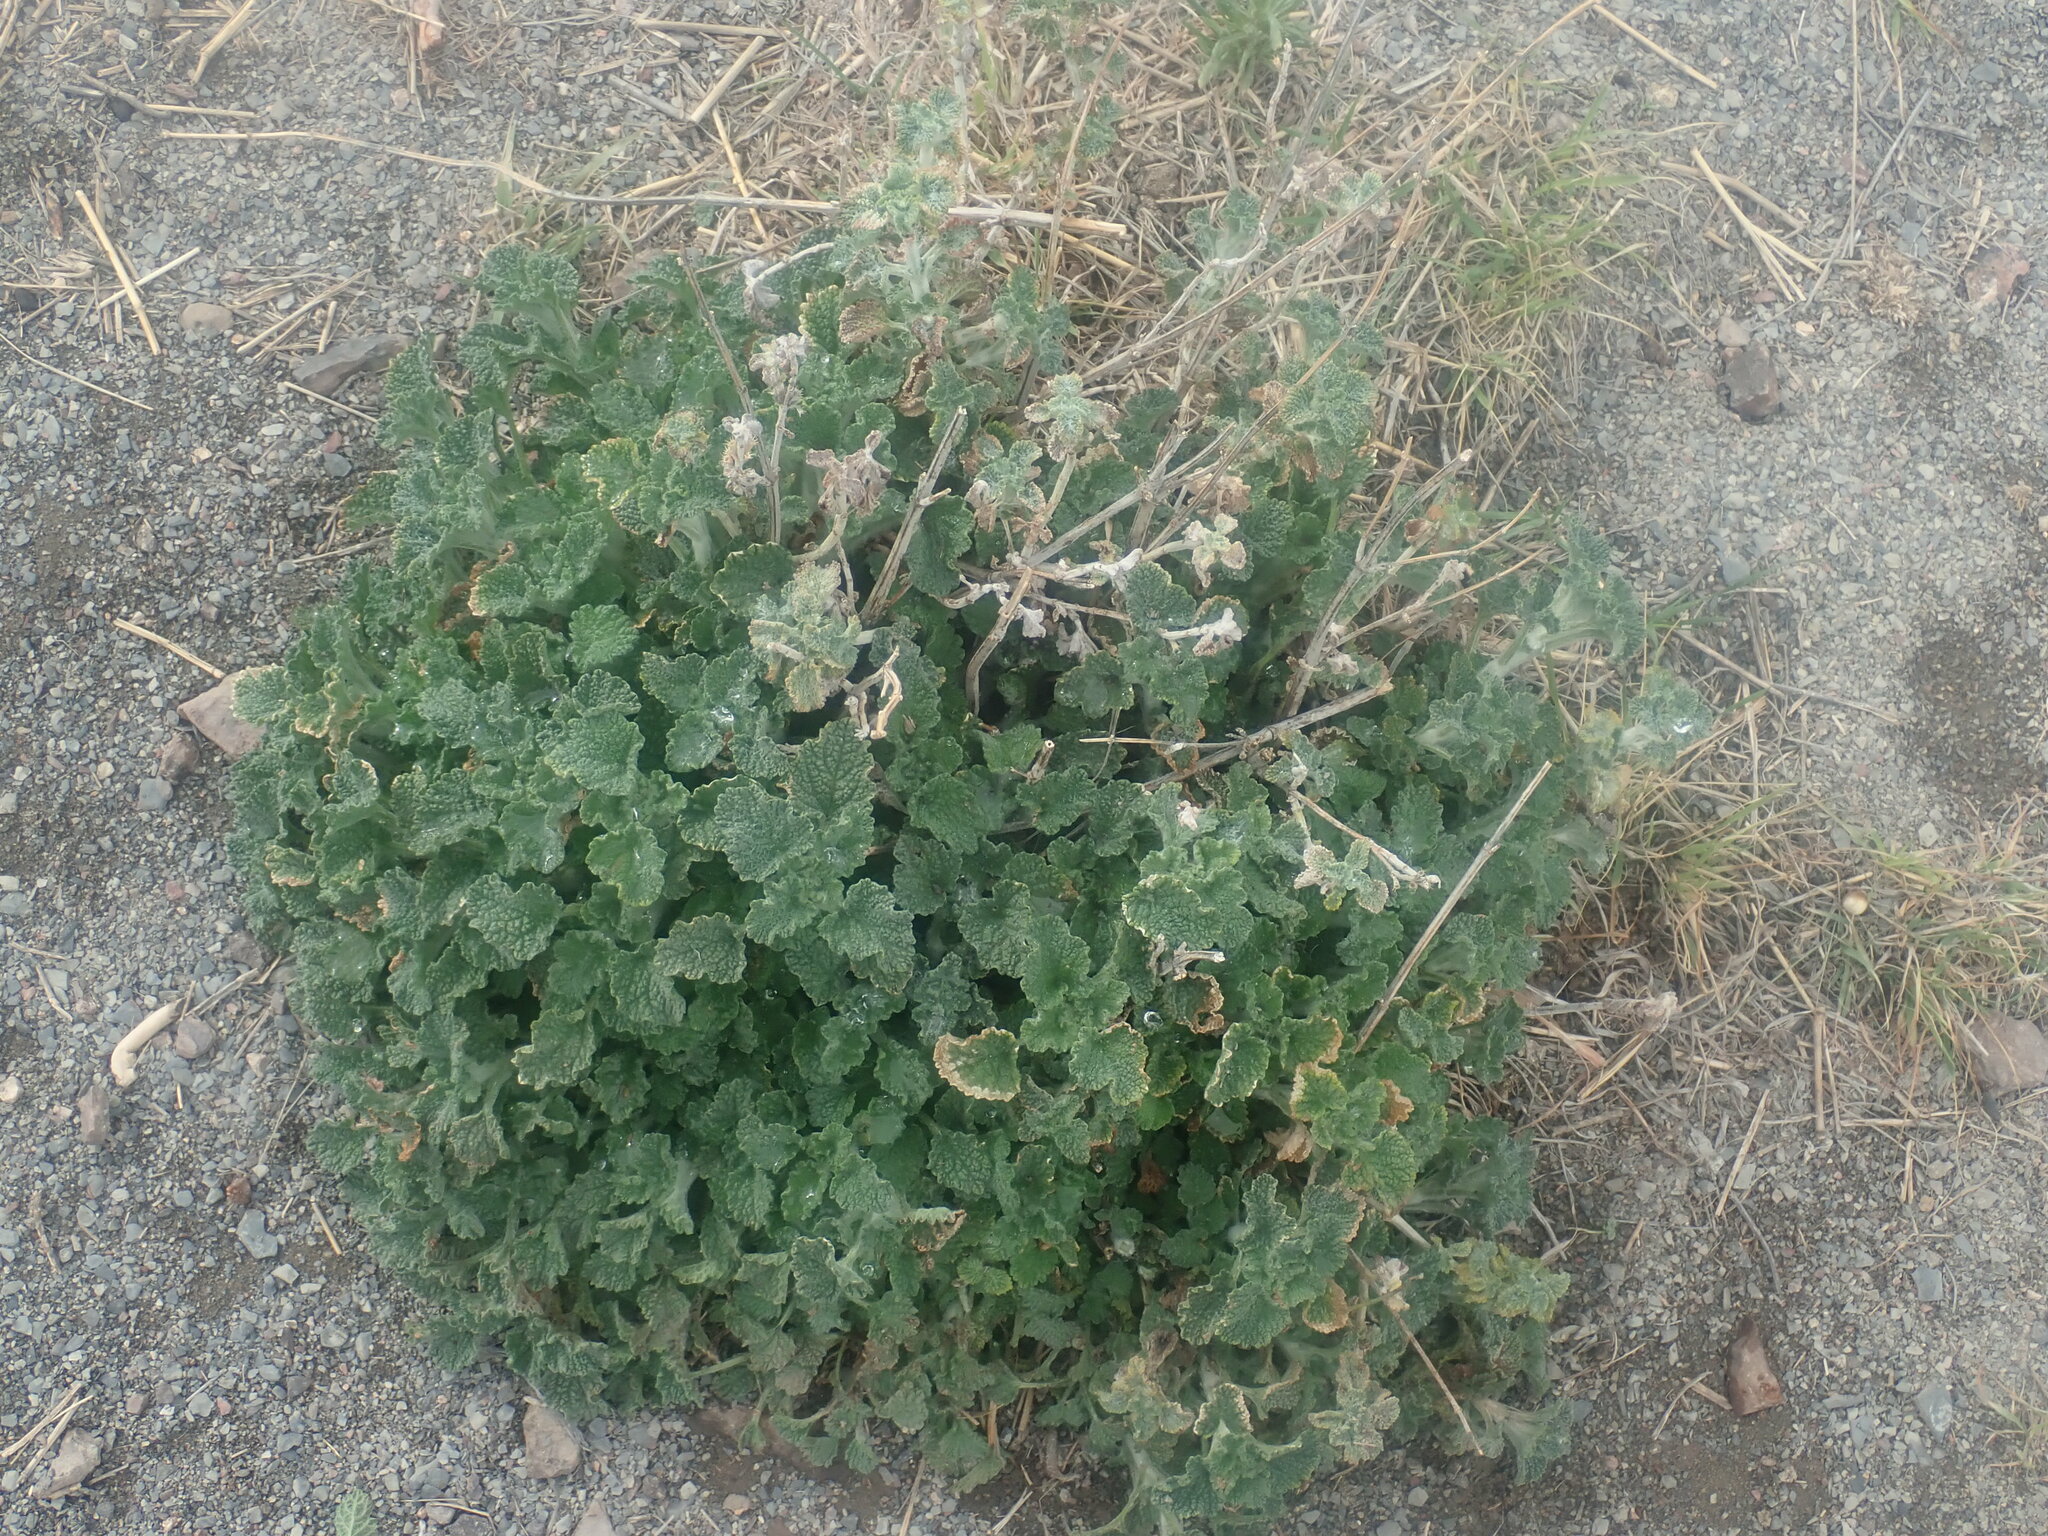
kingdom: Plantae
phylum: Tracheophyta
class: Magnoliopsida
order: Lamiales
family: Lamiaceae
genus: Marrubium
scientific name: Marrubium vulgare
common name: Horehound
